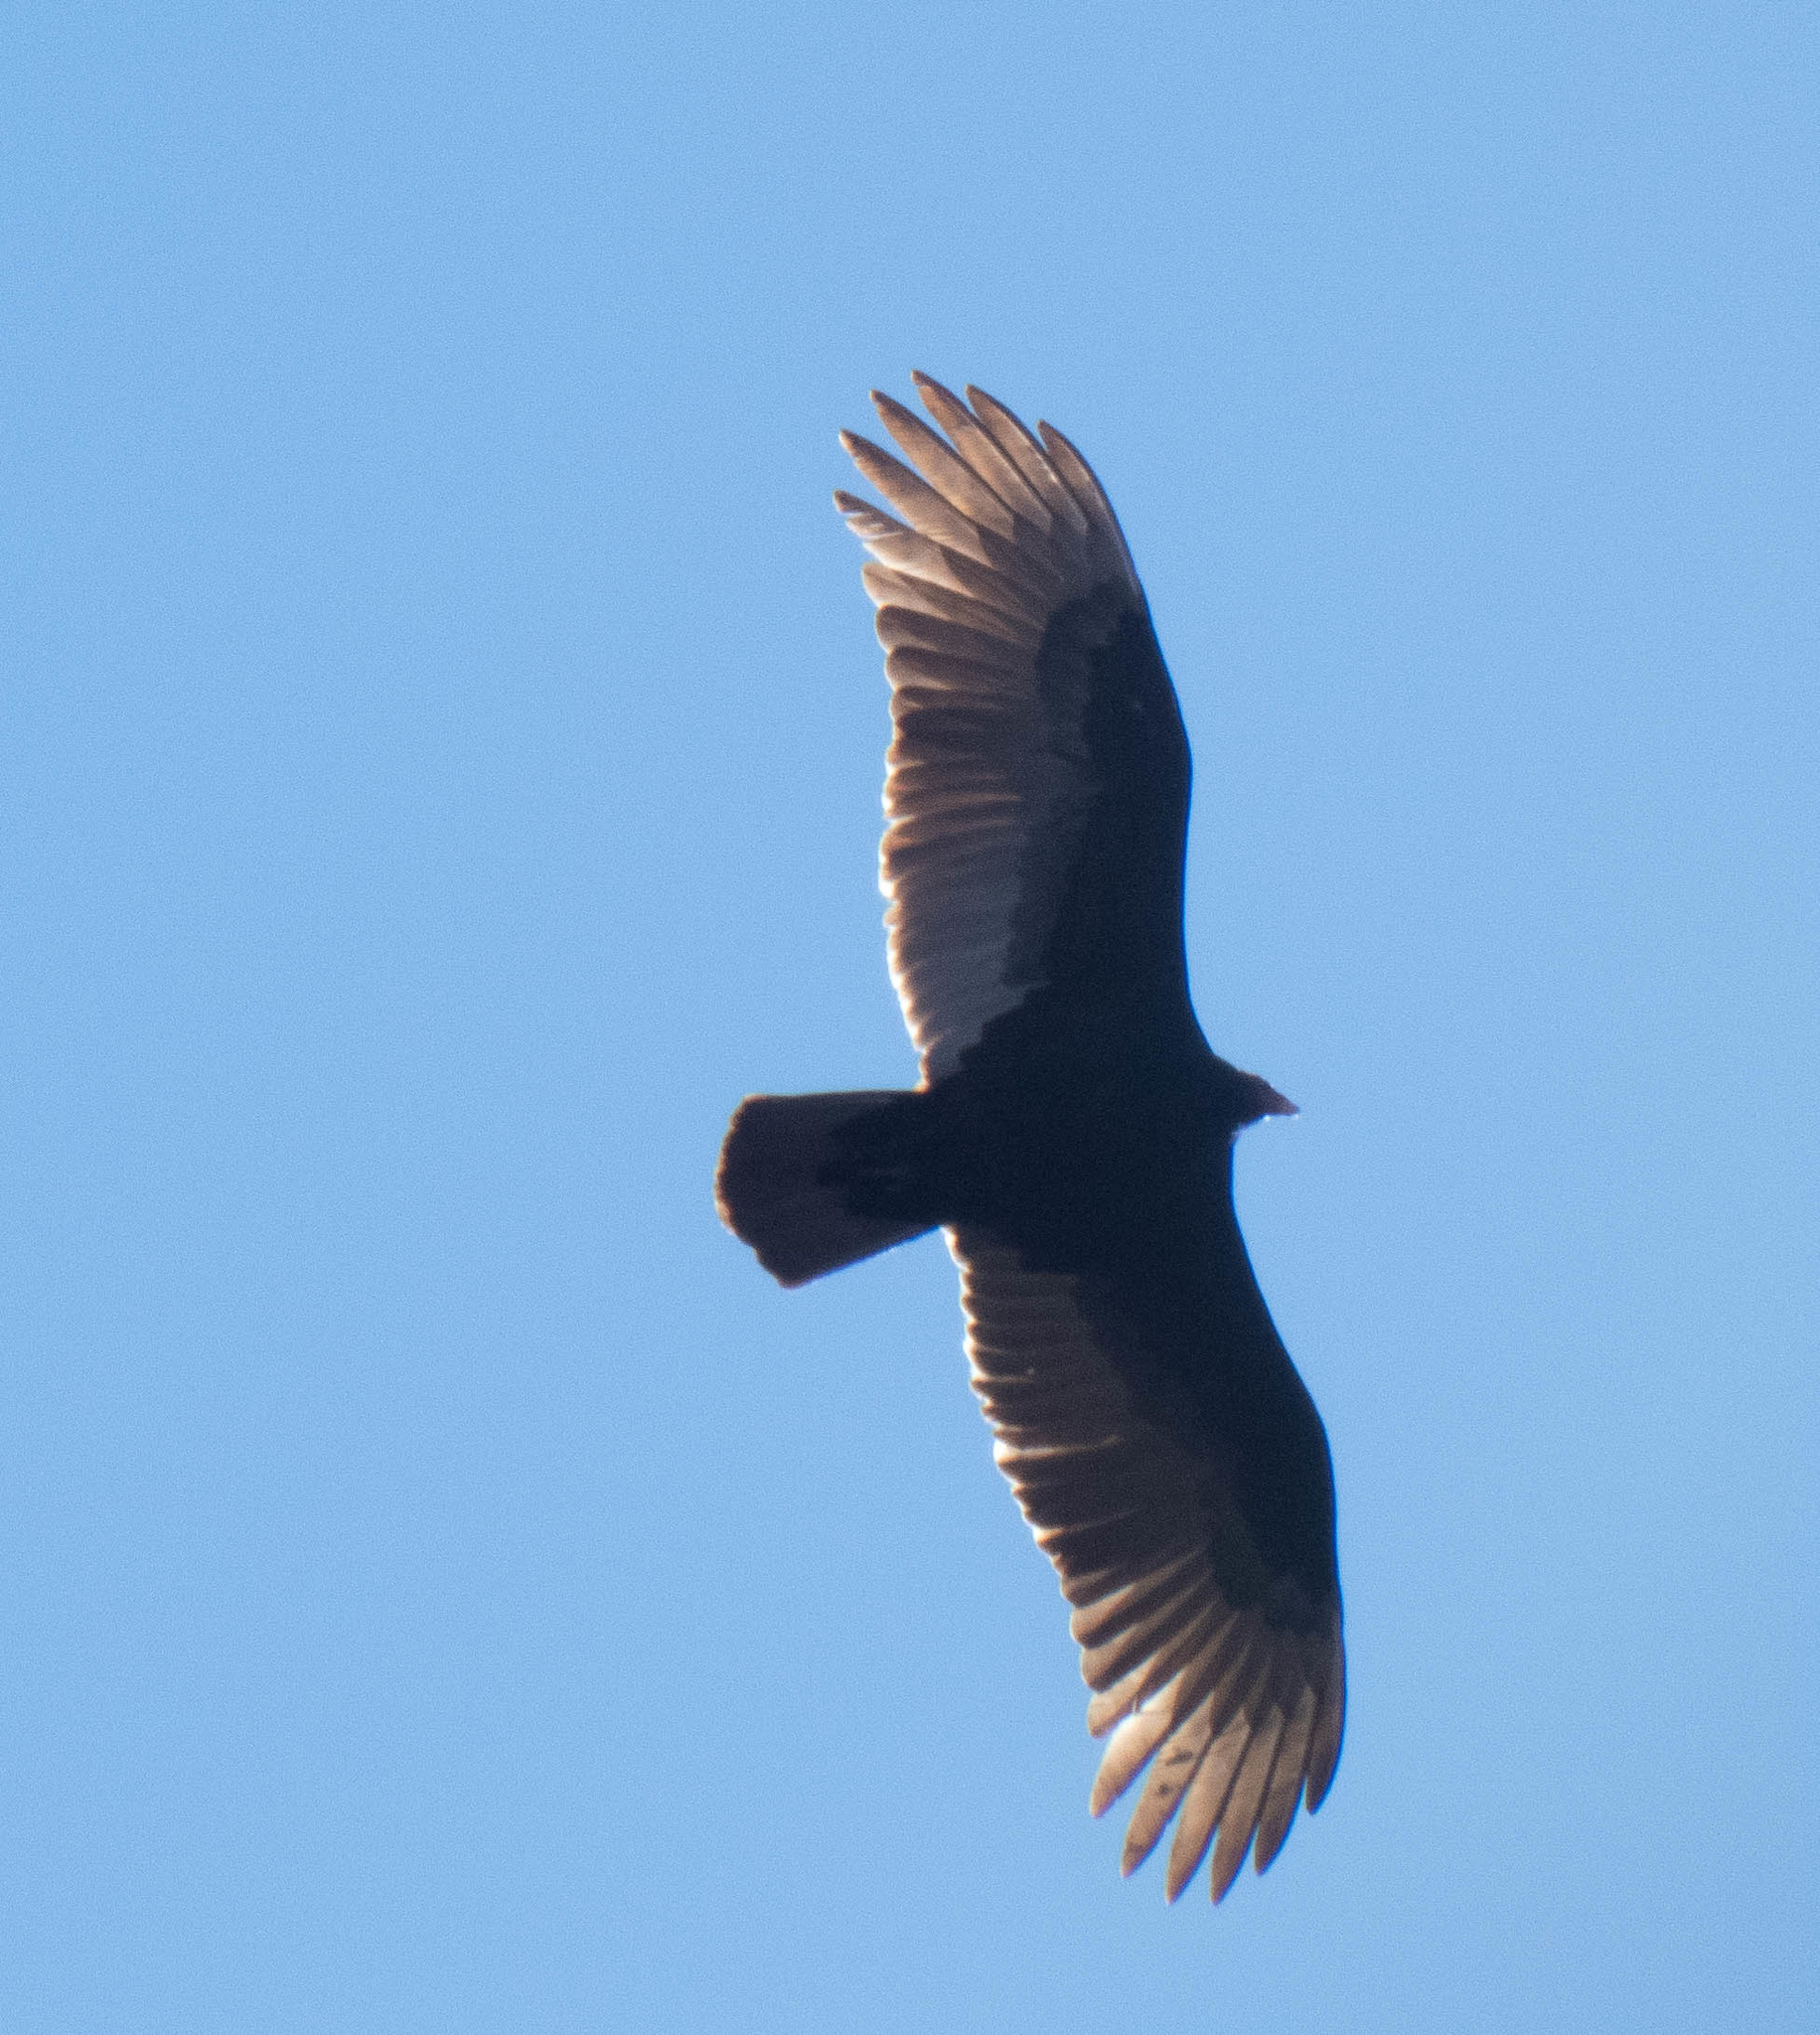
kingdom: Animalia
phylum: Chordata
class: Aves
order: Accipitriformes
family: Cathartidae
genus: Cathartes
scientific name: Cathartes aura
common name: Turkey vulture
